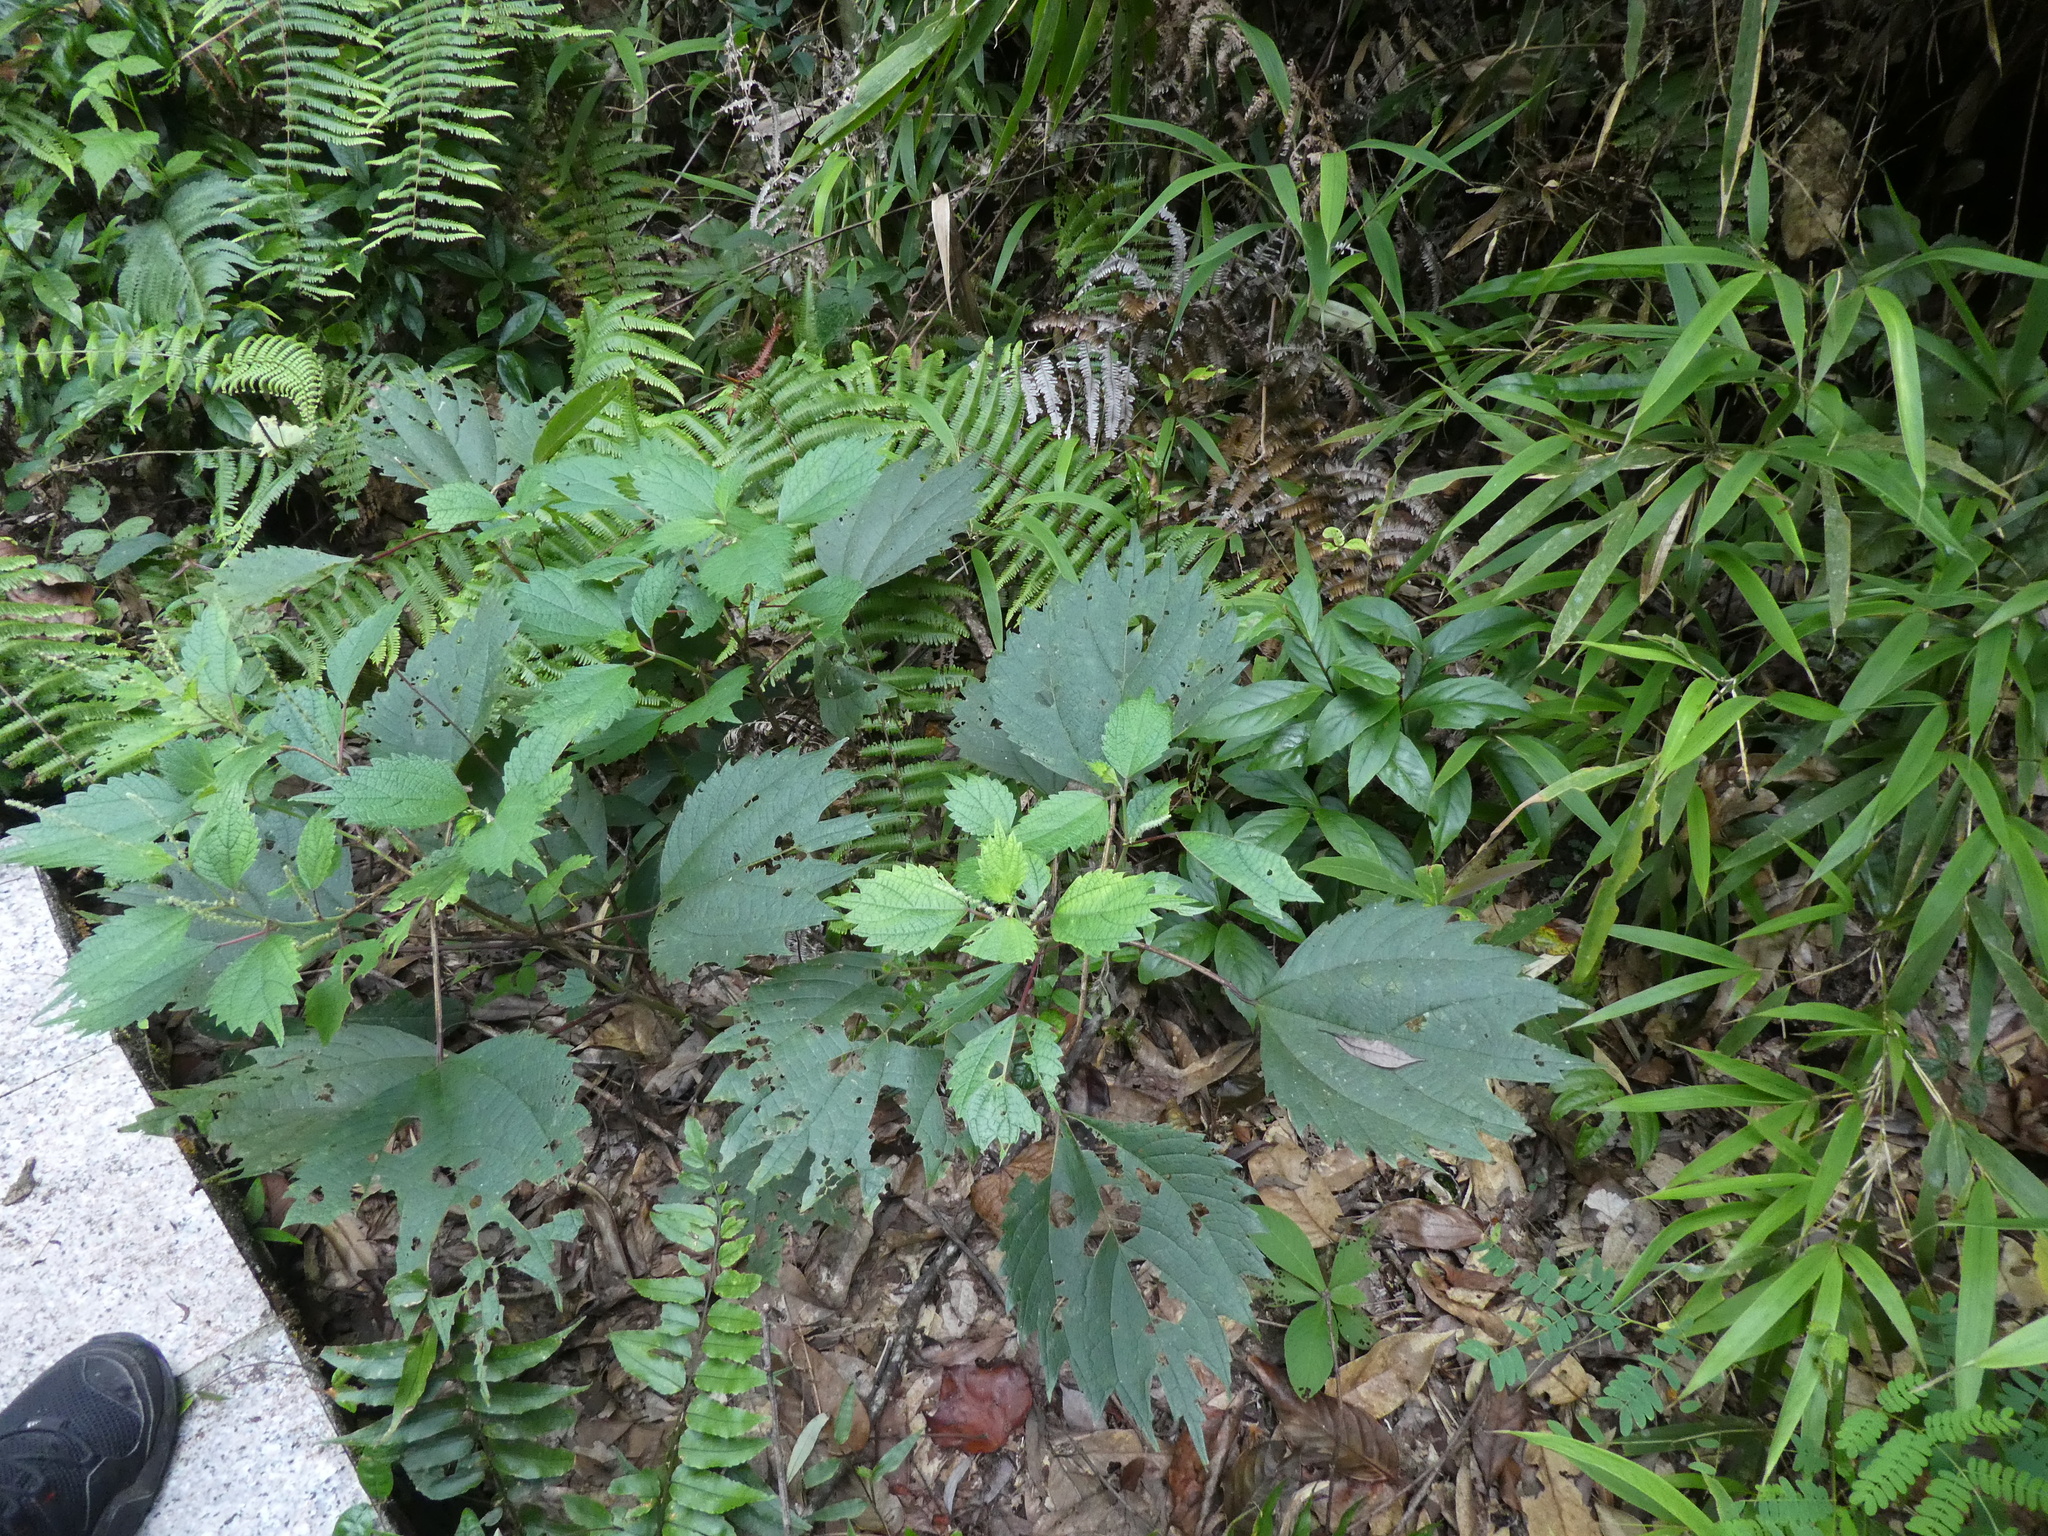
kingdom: Plantae
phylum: Tracheophyta
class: Magnoliopsida
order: Rosales
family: Urticaceae
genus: Boehmeria
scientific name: Boehmeria japonica
